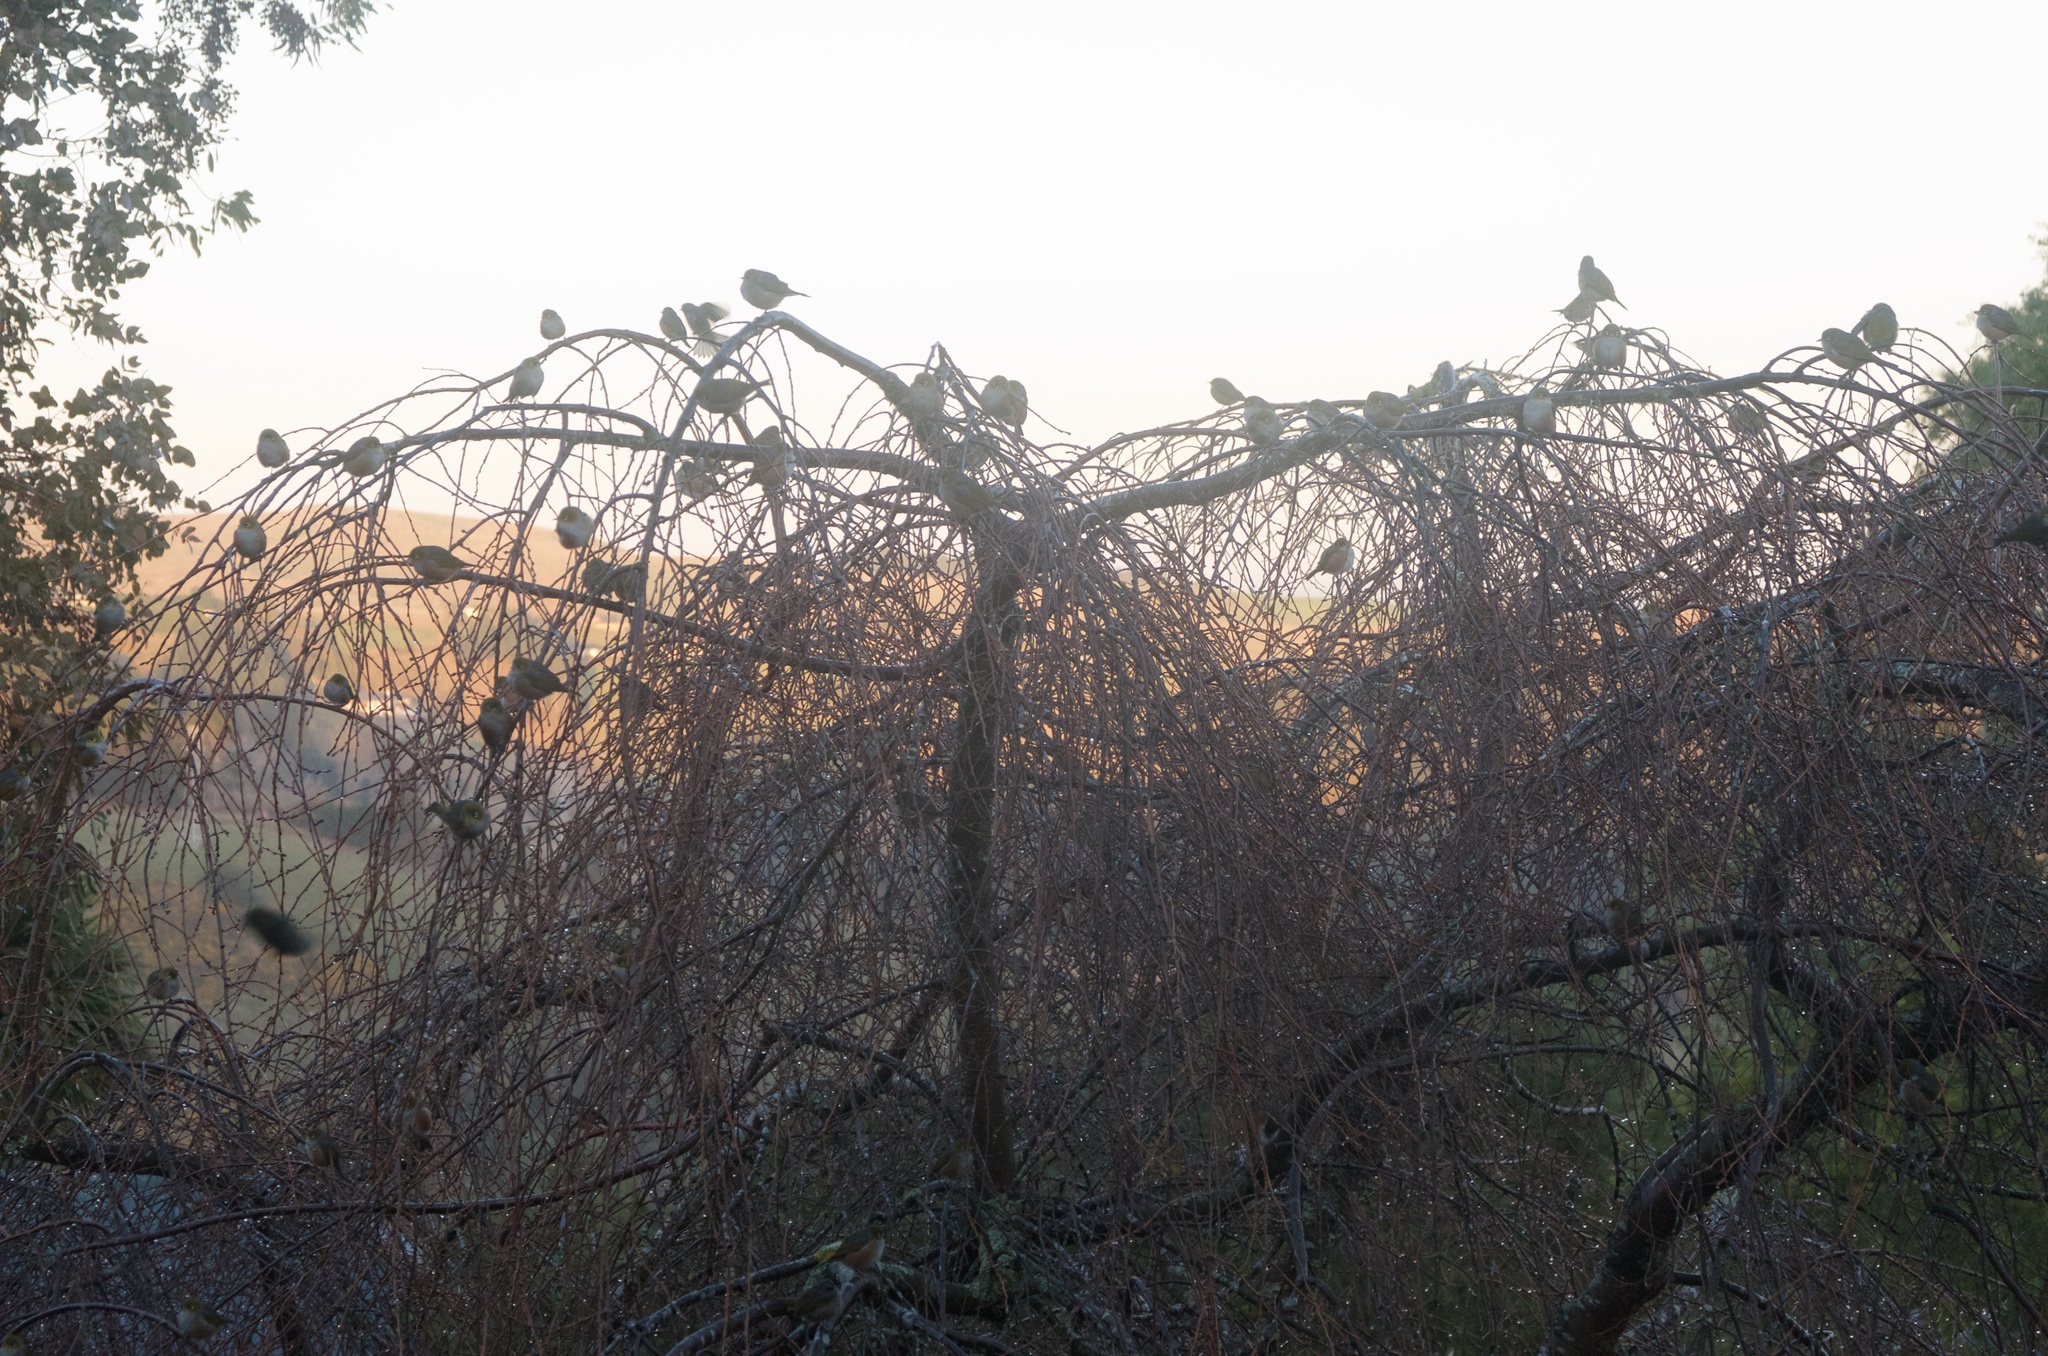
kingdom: Animalia
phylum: Chordata
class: Aves
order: Passeriformes
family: Zosteropidae
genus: Zosterops
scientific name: Zosterops lateralis
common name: Silvereye
